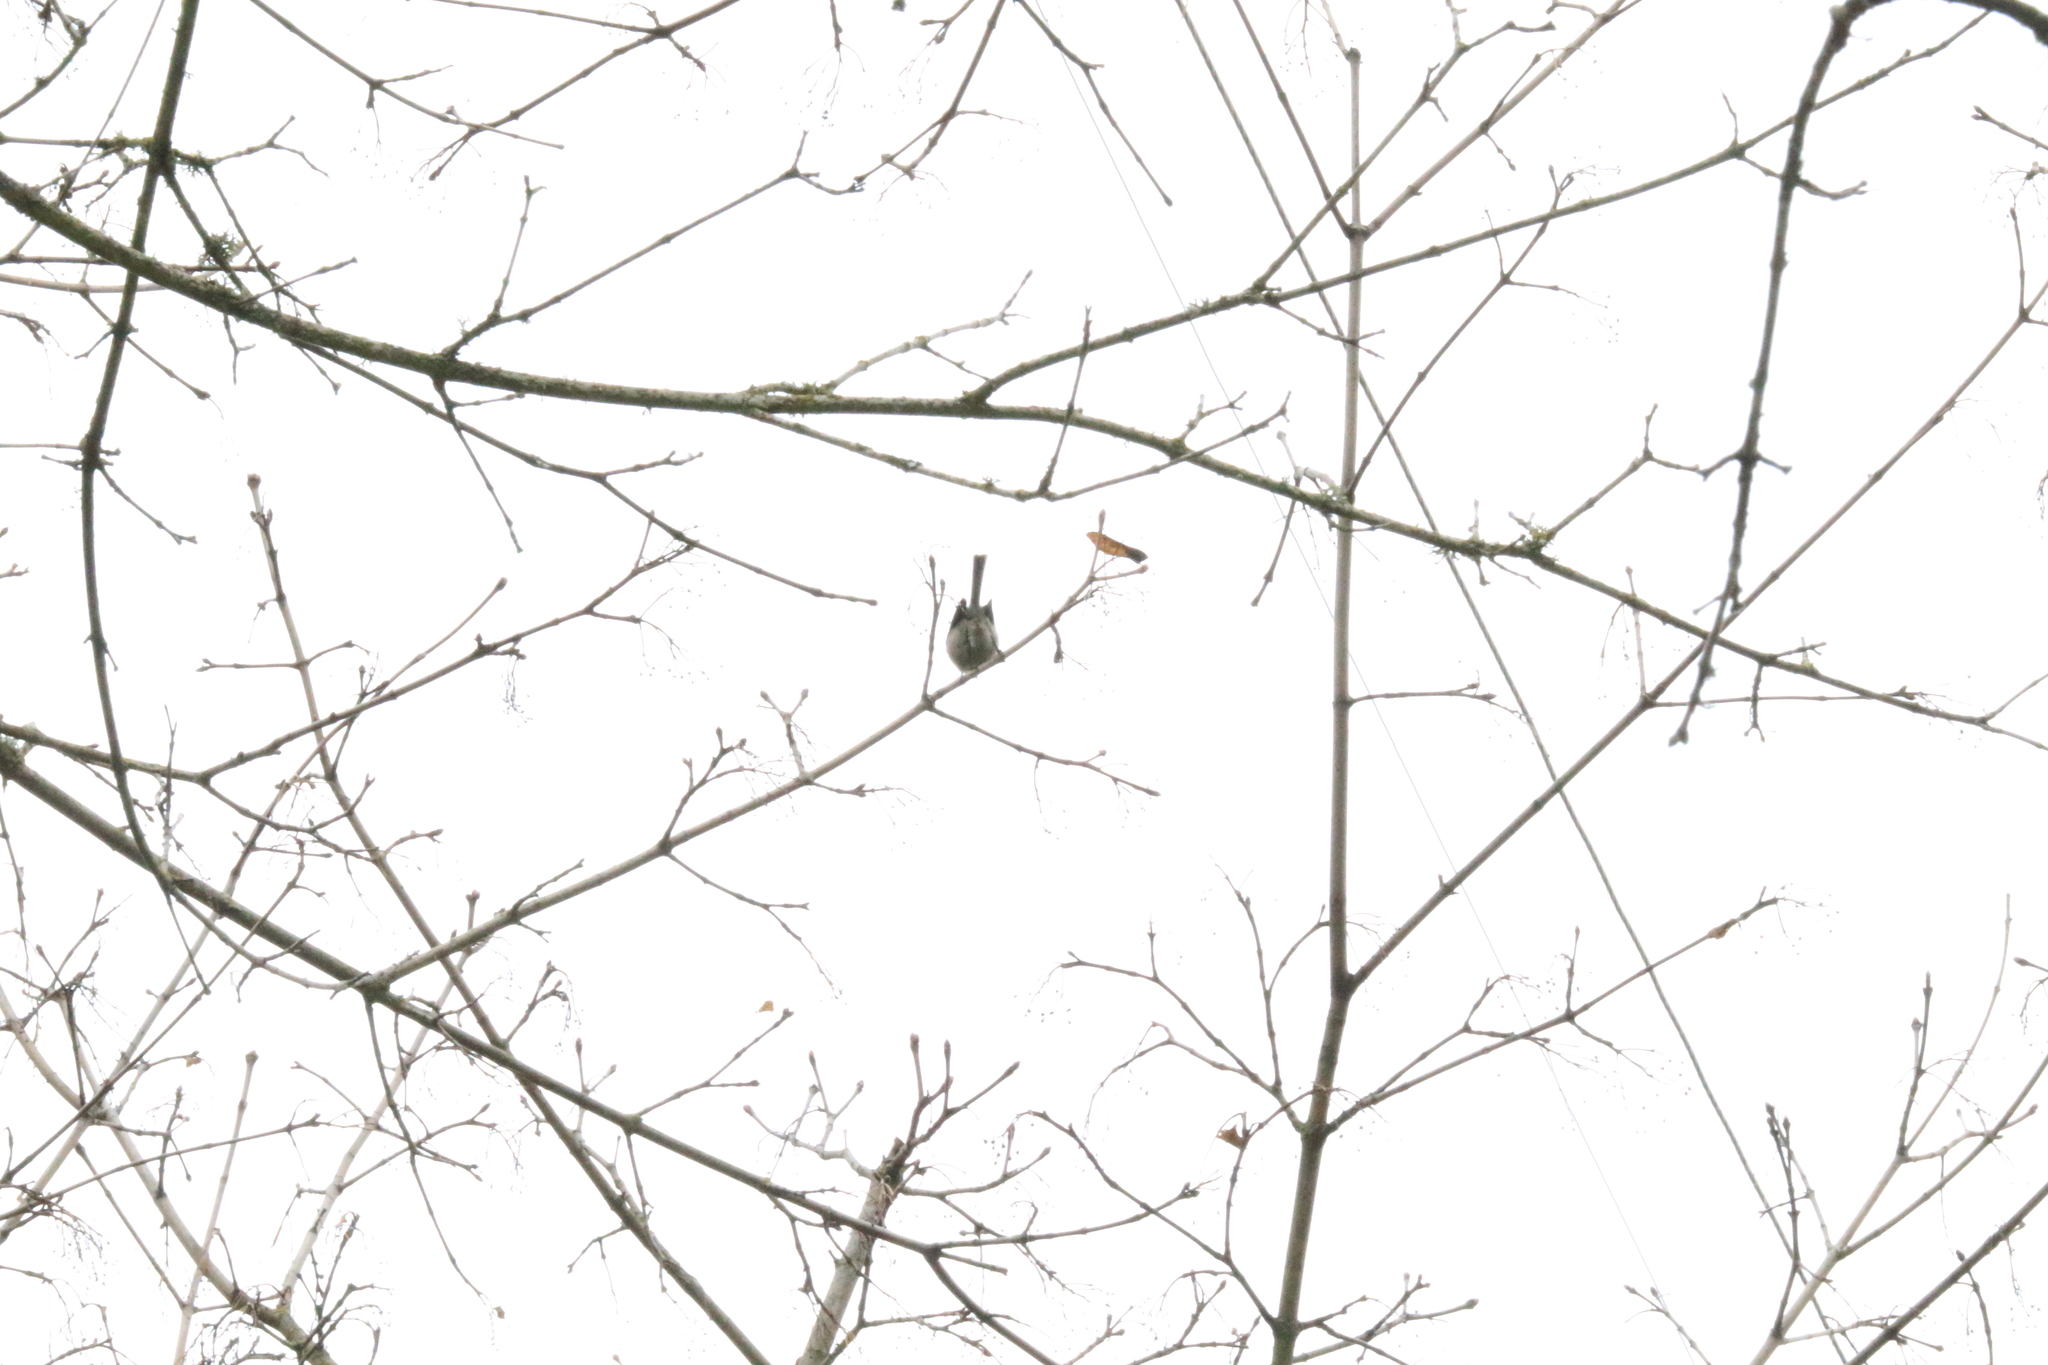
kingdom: Animalia
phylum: Chordata
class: Aves
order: Passeriformes
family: Aegithalidae
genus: Psaltriparus
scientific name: Psaltriparus minimus
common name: American bushtit
